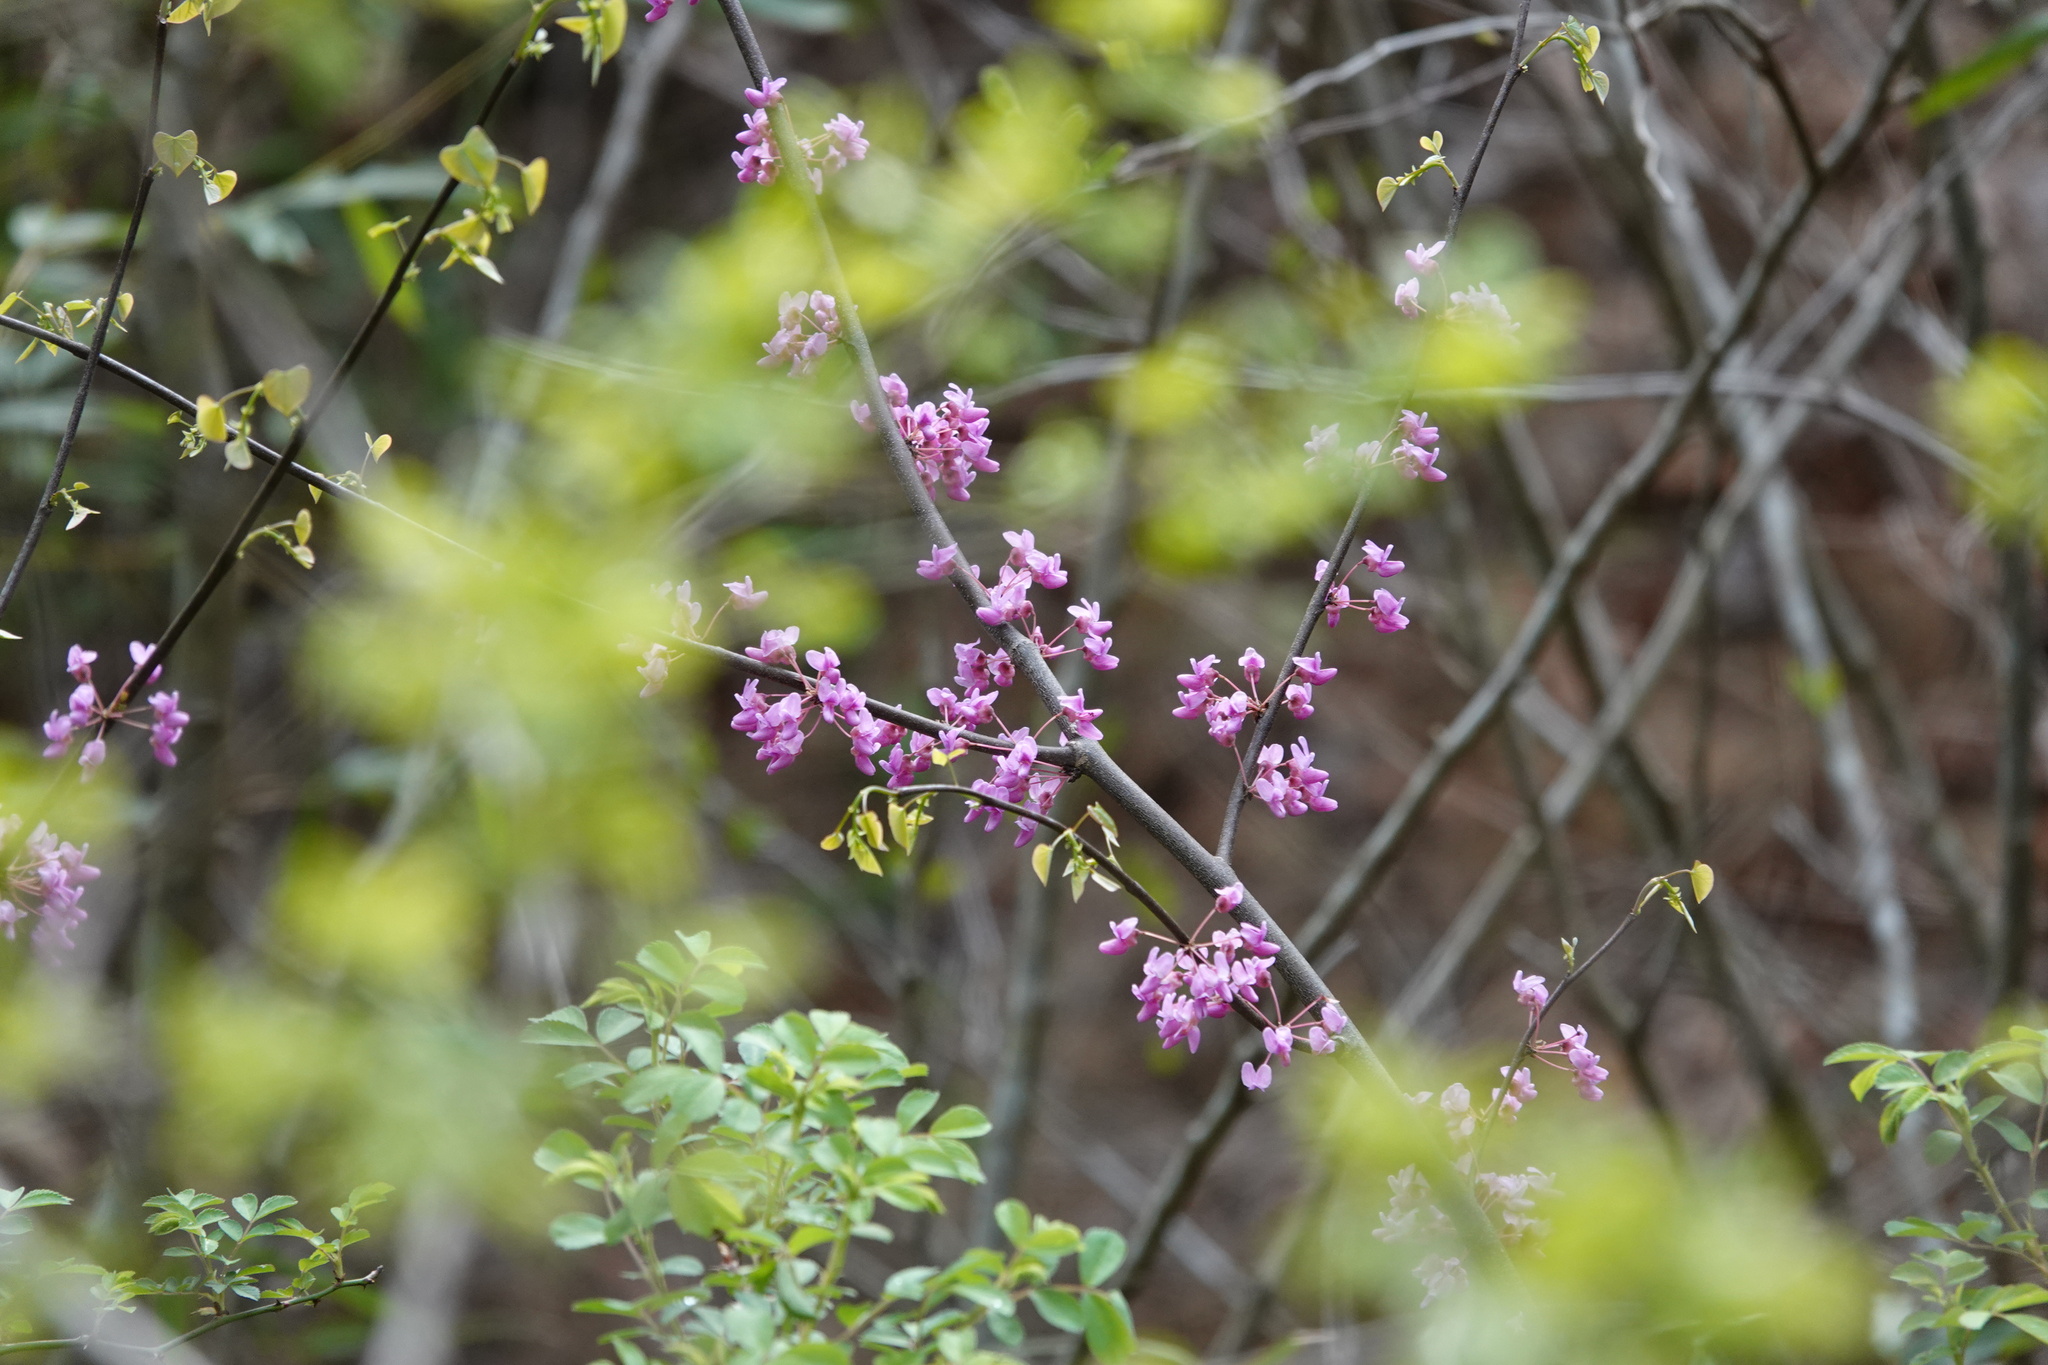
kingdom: Plantae
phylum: Tracheophyta
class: Magnoliopsida
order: Fabales
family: Fabaceae
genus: Cercis
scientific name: Cercis canadensis
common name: Eastern redbud
